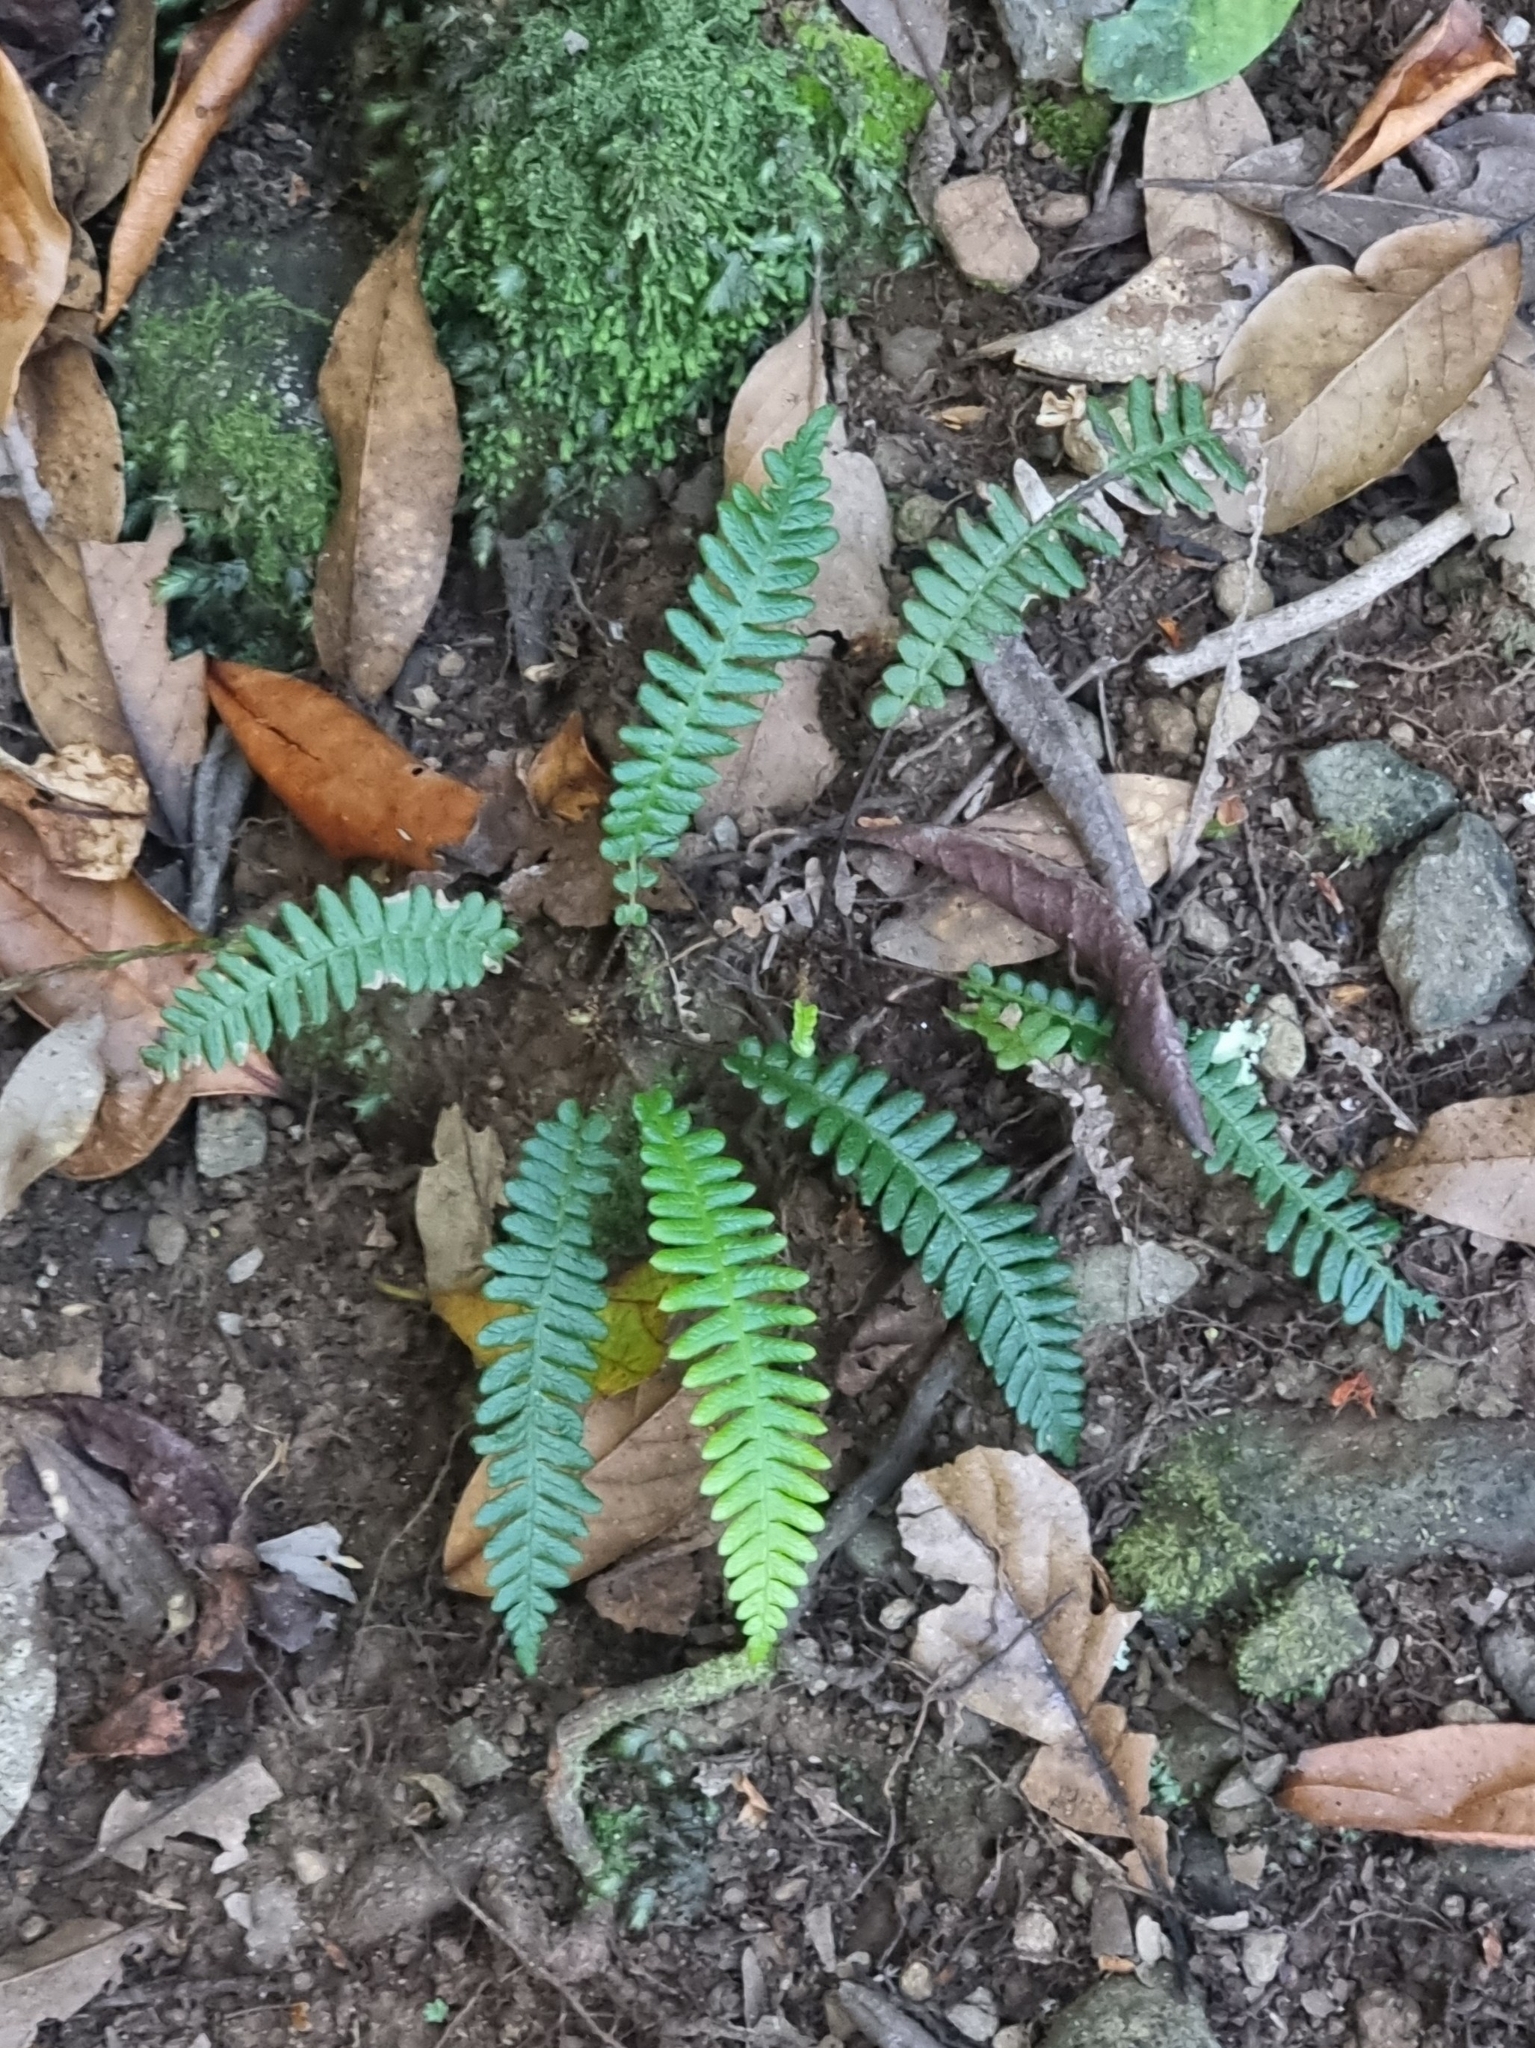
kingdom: Plantae
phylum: Tracheophyta
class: Polypodiopsida
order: Polypodiales
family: Blechnaceae
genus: Struthiopteris
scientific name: Struthiopteris spicant
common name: Deer fern
